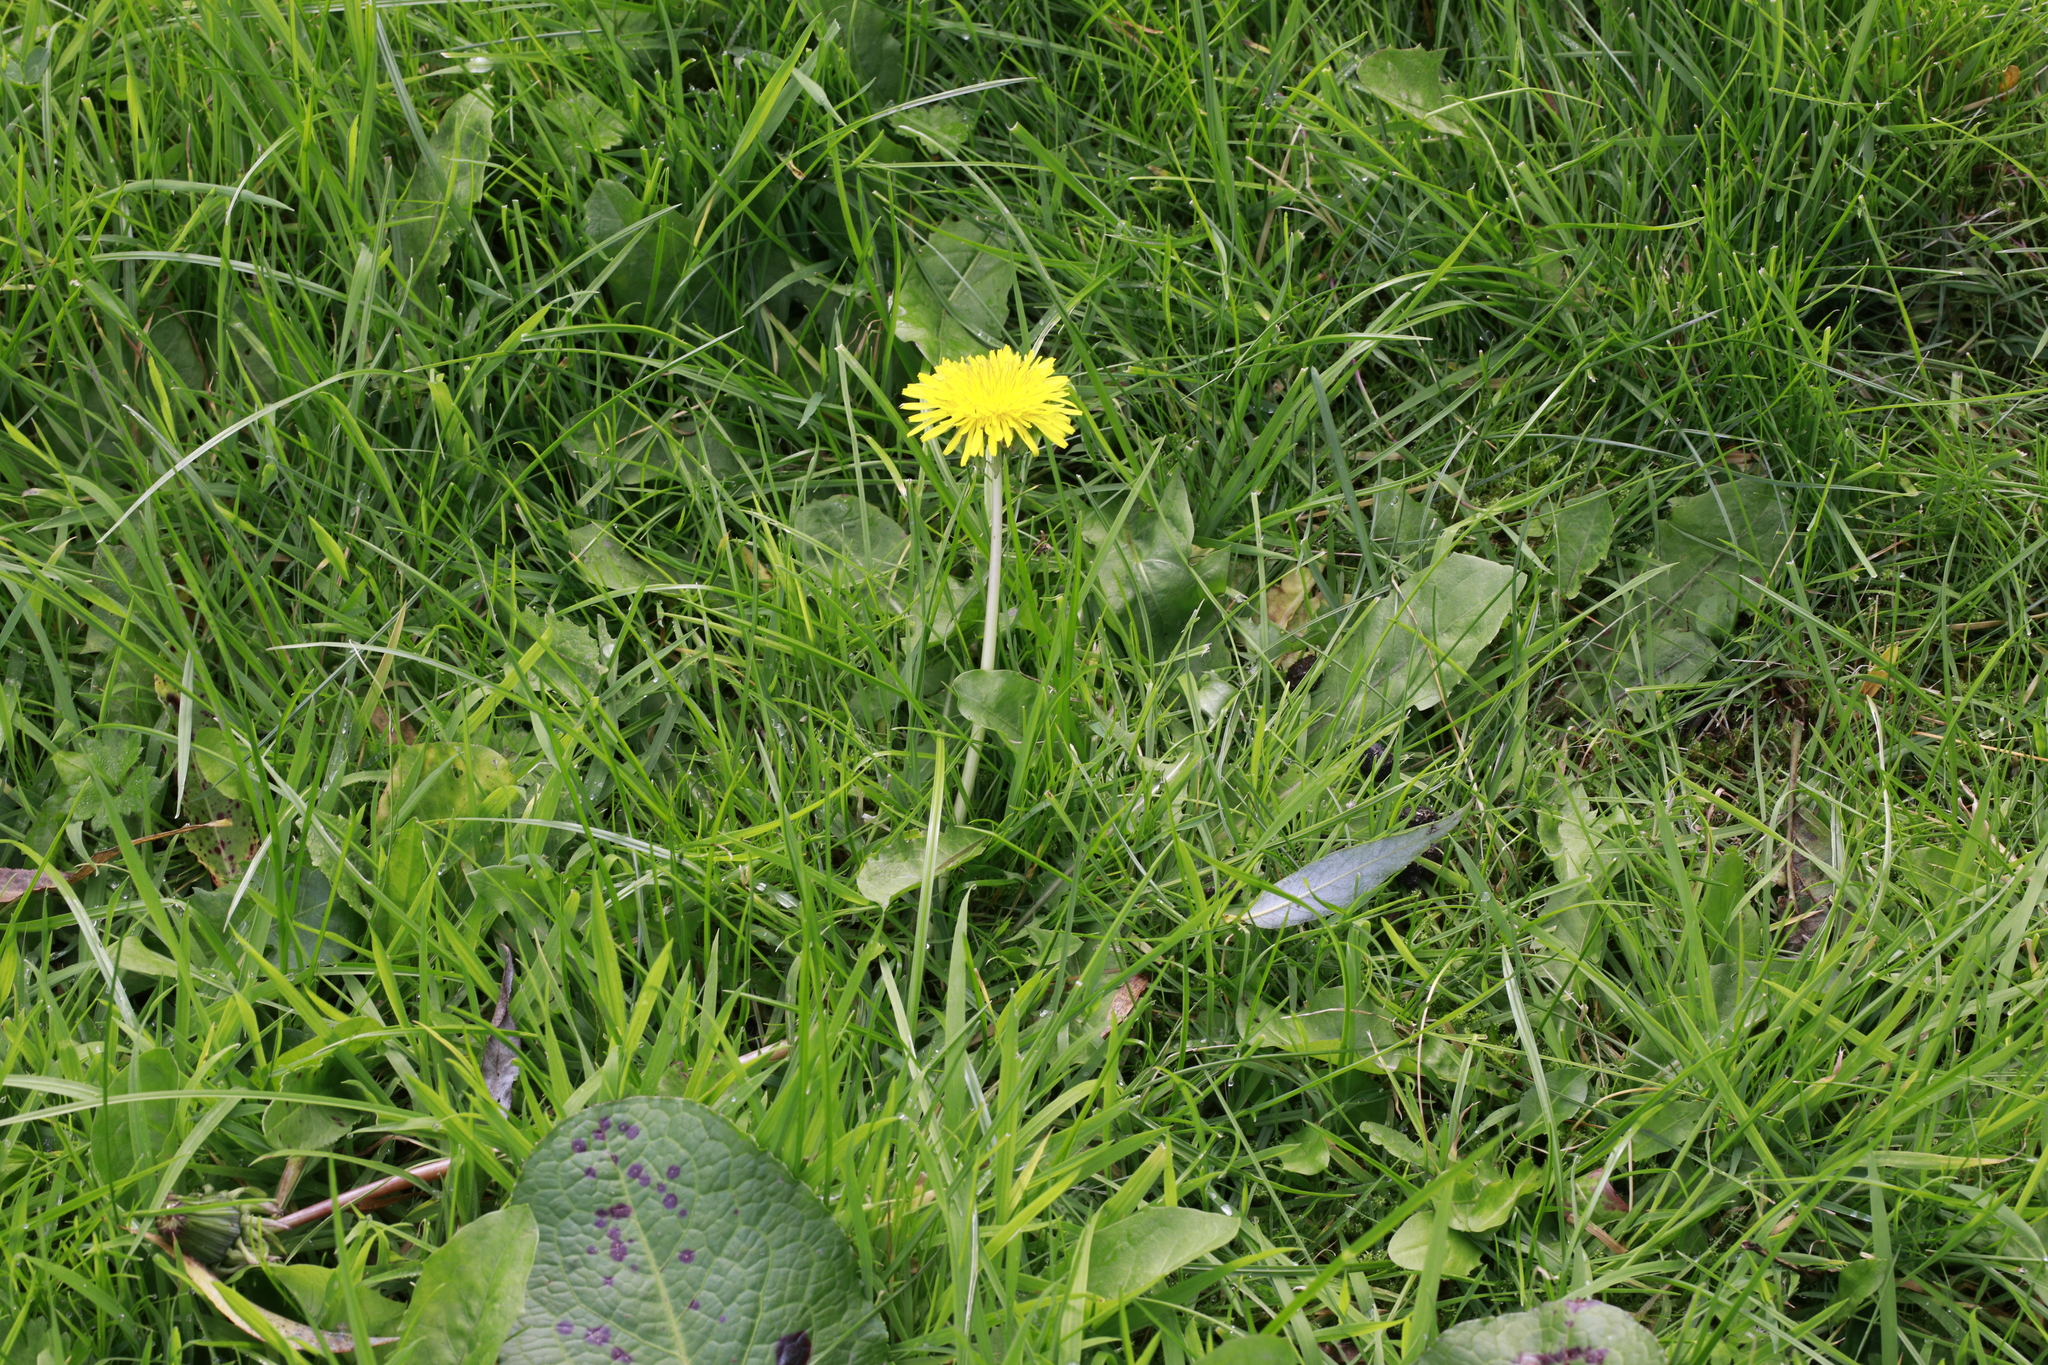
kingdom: Plantae
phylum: Tracheophyta
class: Magnoliopsida
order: Asterales
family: Asteraceae
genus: Taraxacum
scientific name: Taraxacum officinale
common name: Common dandelion
